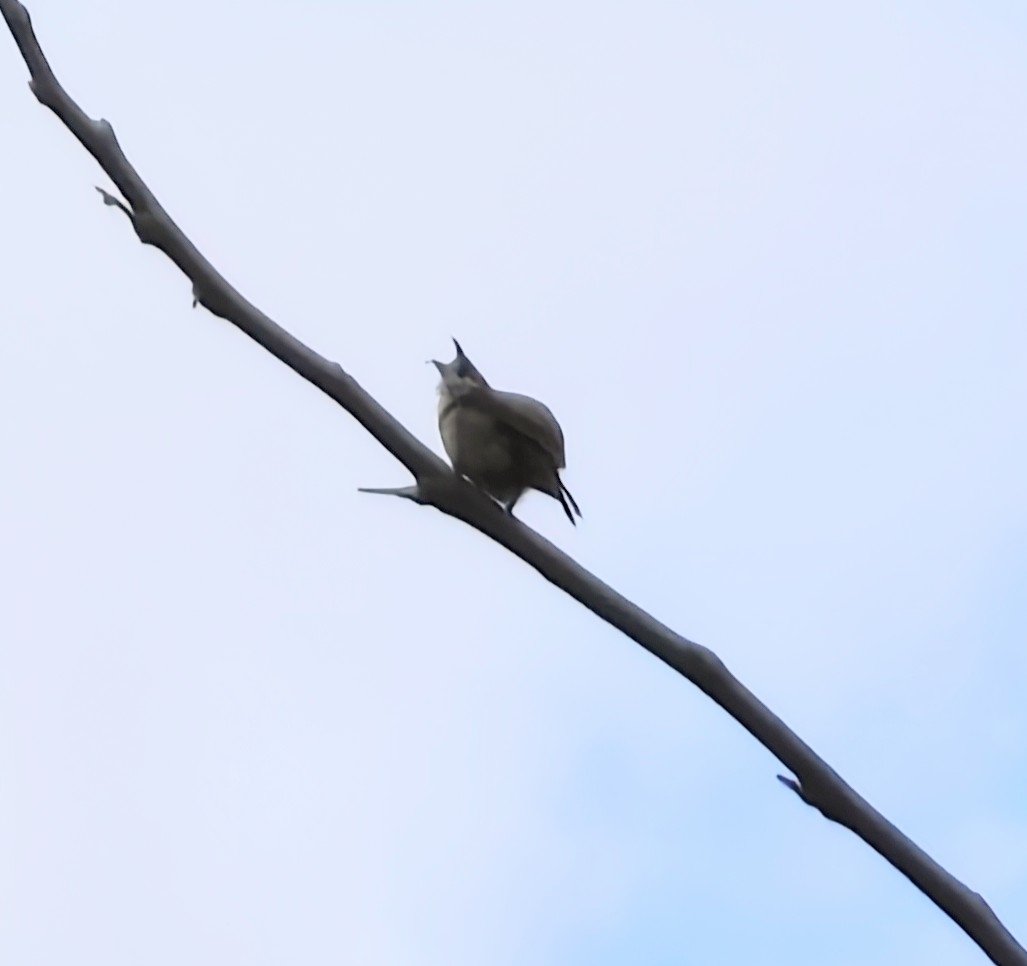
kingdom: Animalia
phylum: Chordata
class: Aves
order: Passeriformes
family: Pycnonotidae
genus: Pycnonotus
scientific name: Pycnonotus jocosus
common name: Red-whiskered bulbul
